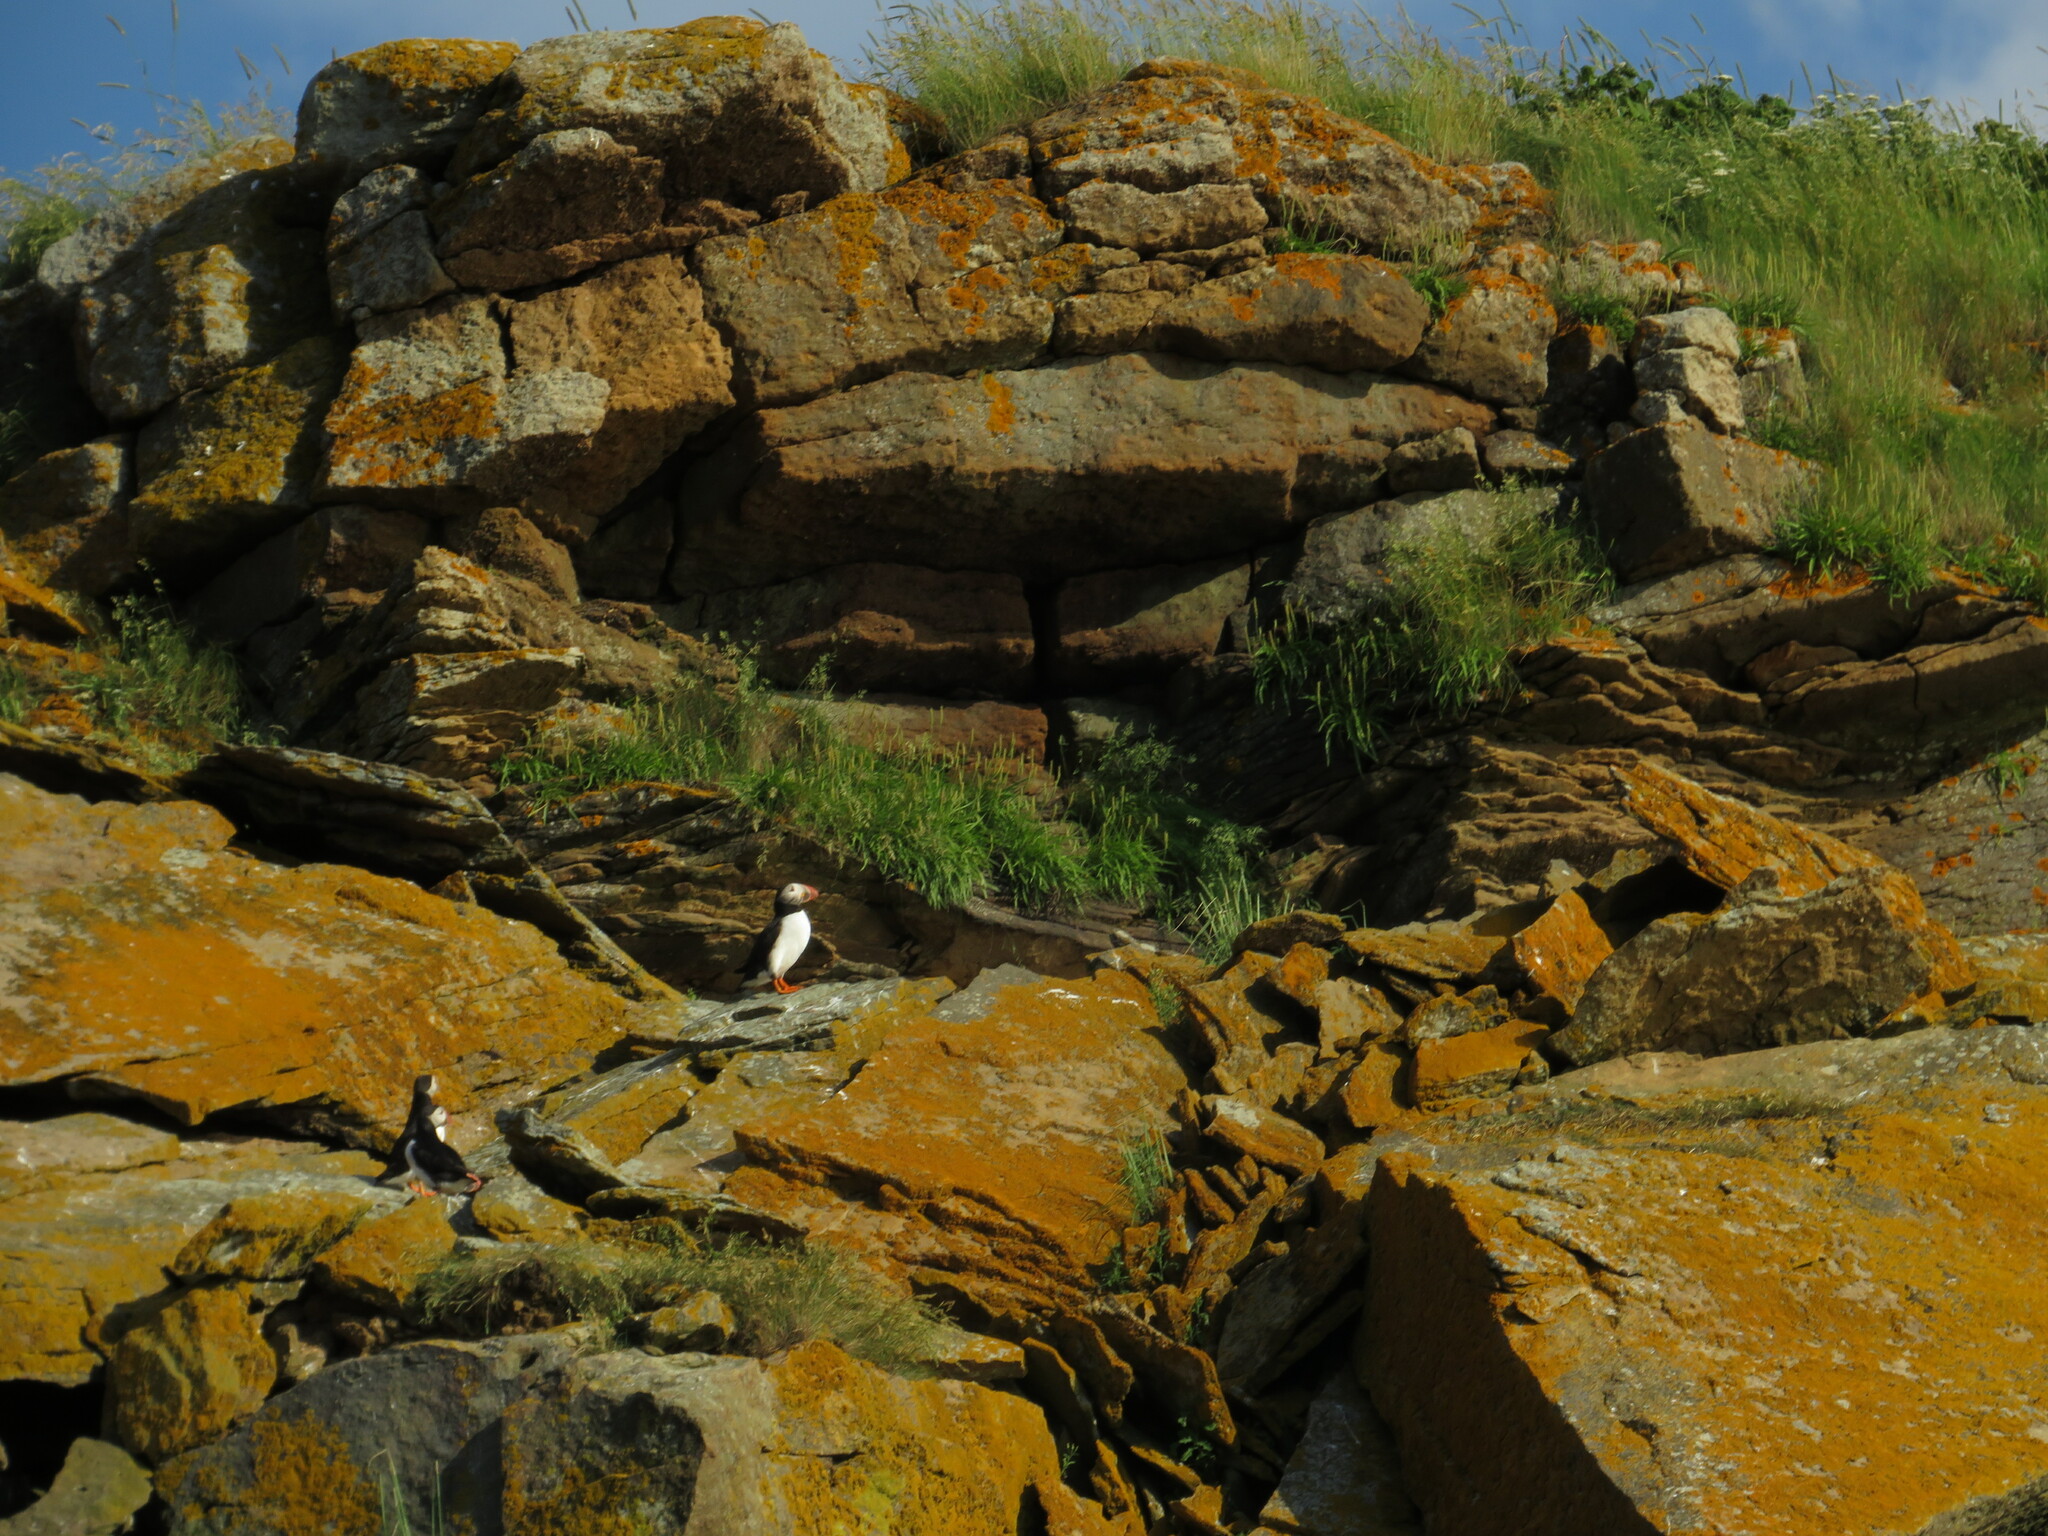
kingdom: Animalia
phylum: Chordata
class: Aves
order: Charadriiformes
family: Alcidae
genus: Fratercula
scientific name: Fratercula arctica
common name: Atlantic puffin
